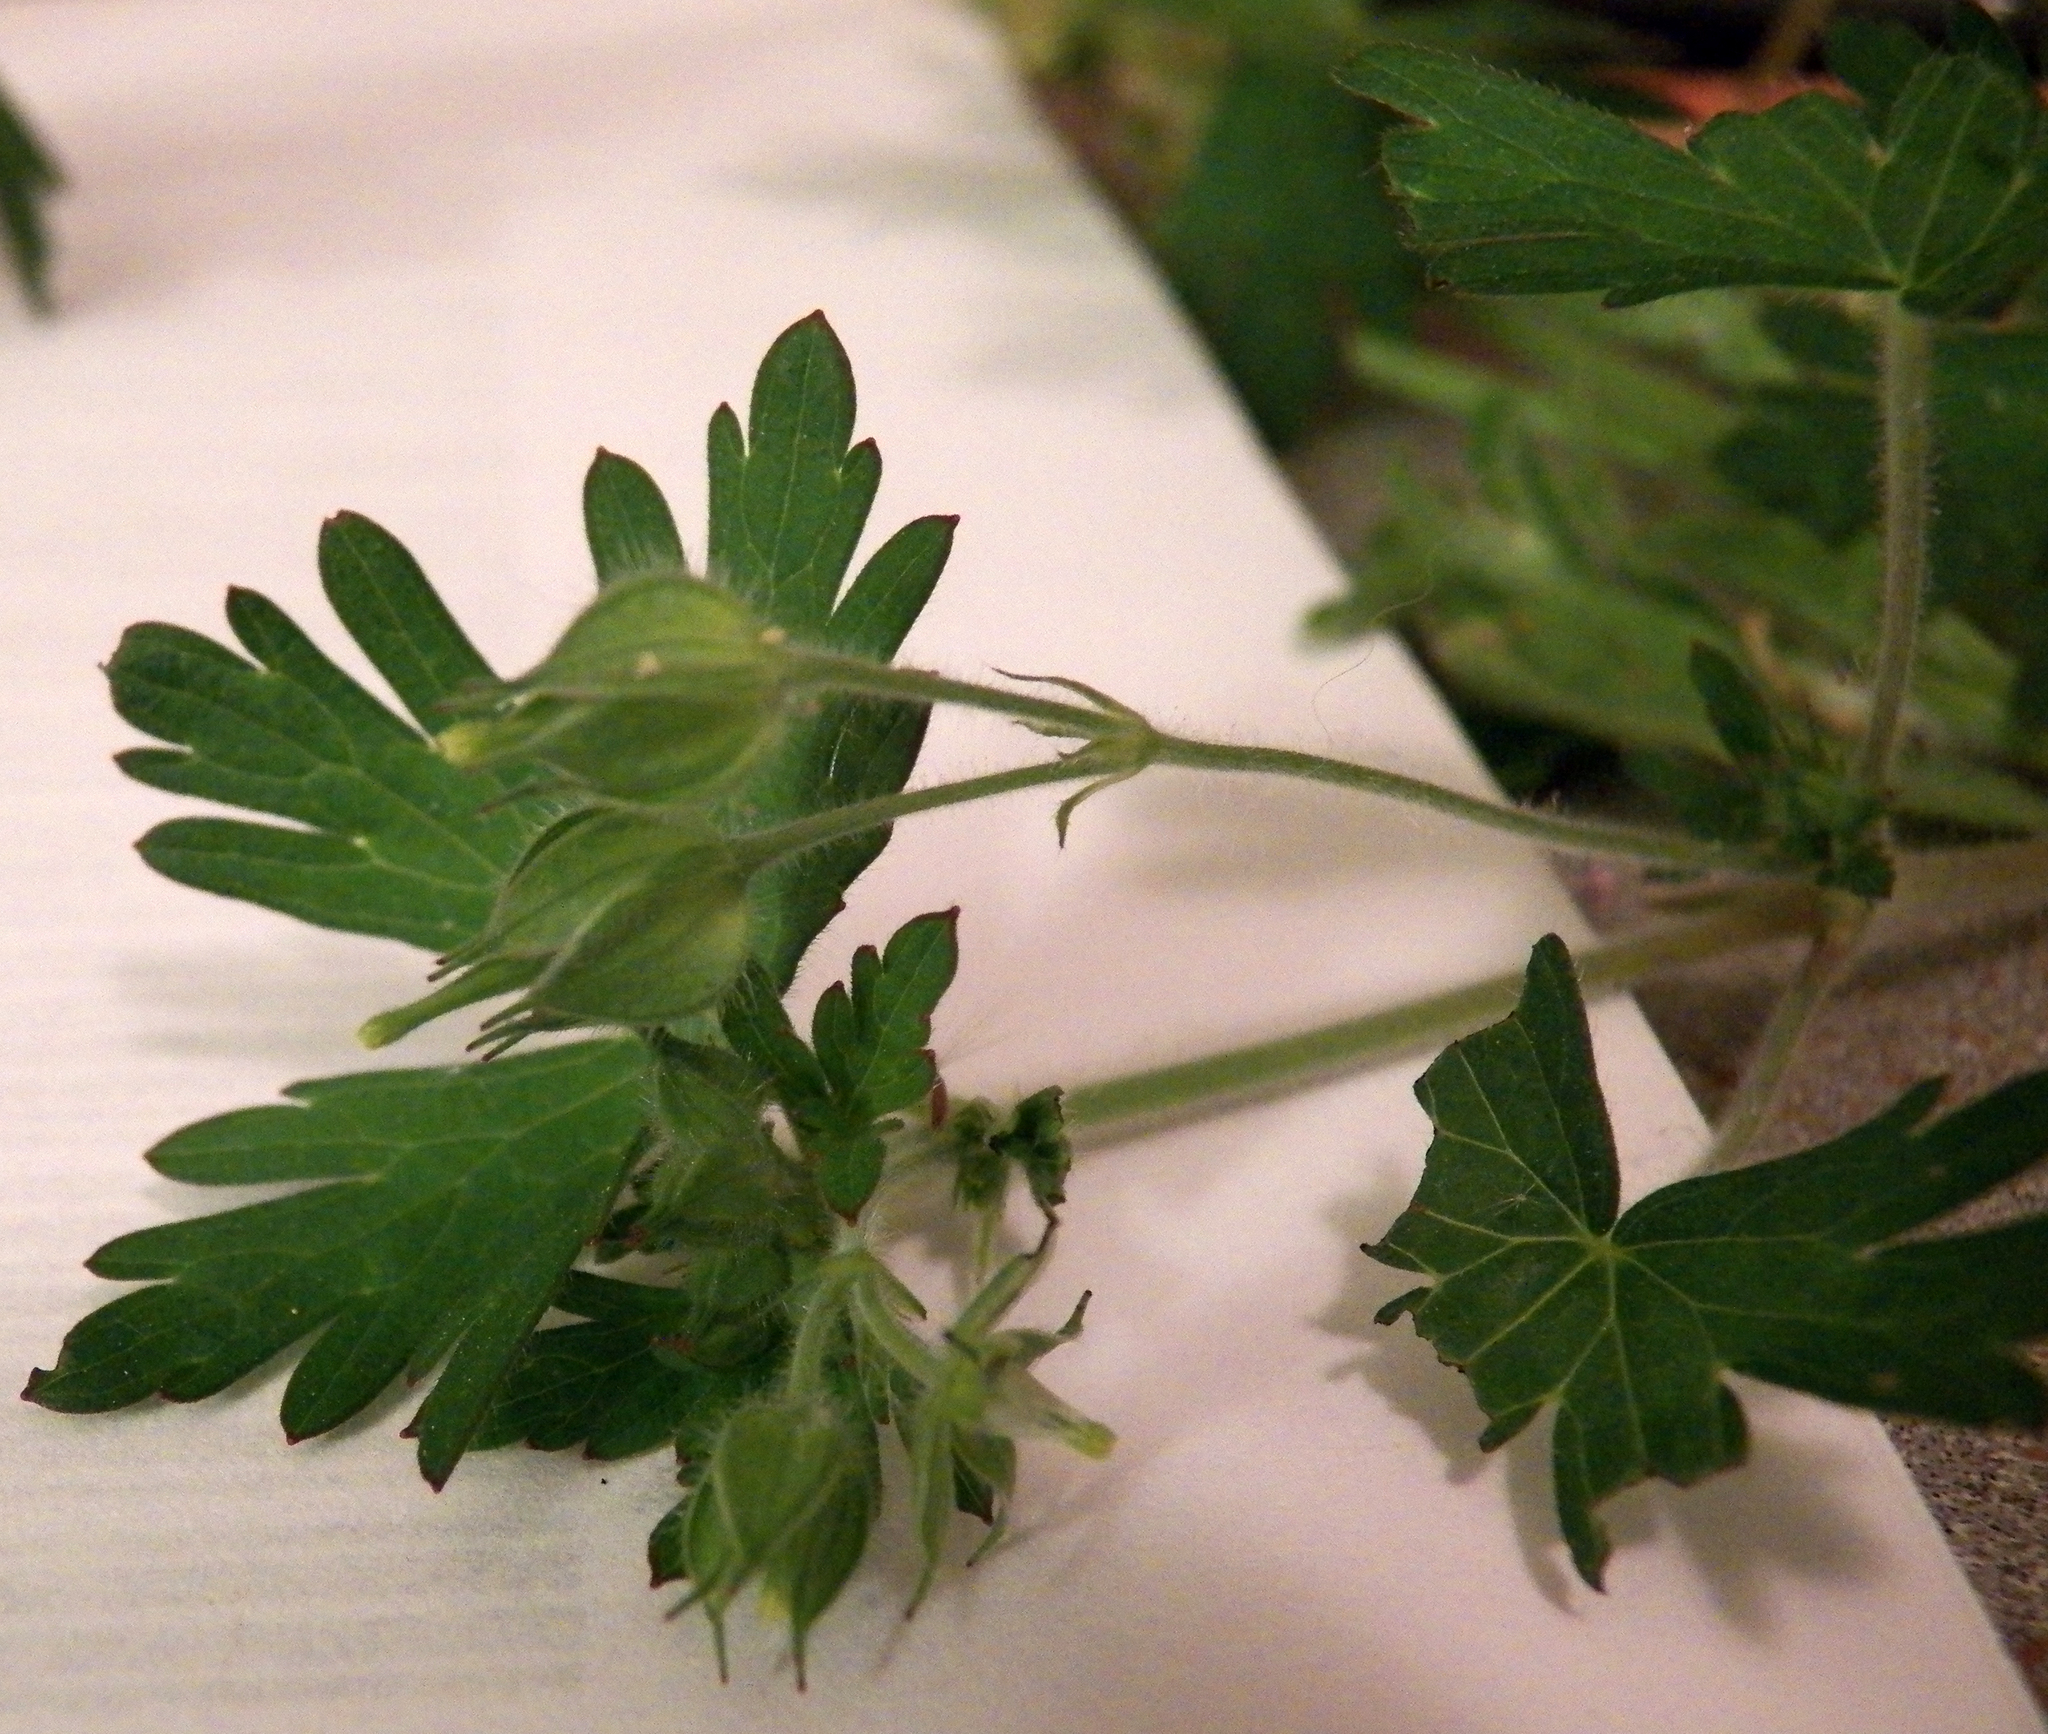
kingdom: Plantae
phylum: Tracheophyta
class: Magnoliopsida
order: Geraniales
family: Geraniaceae
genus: Geranium
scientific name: Geranium carolinianum
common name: Carolina crane's-bill
